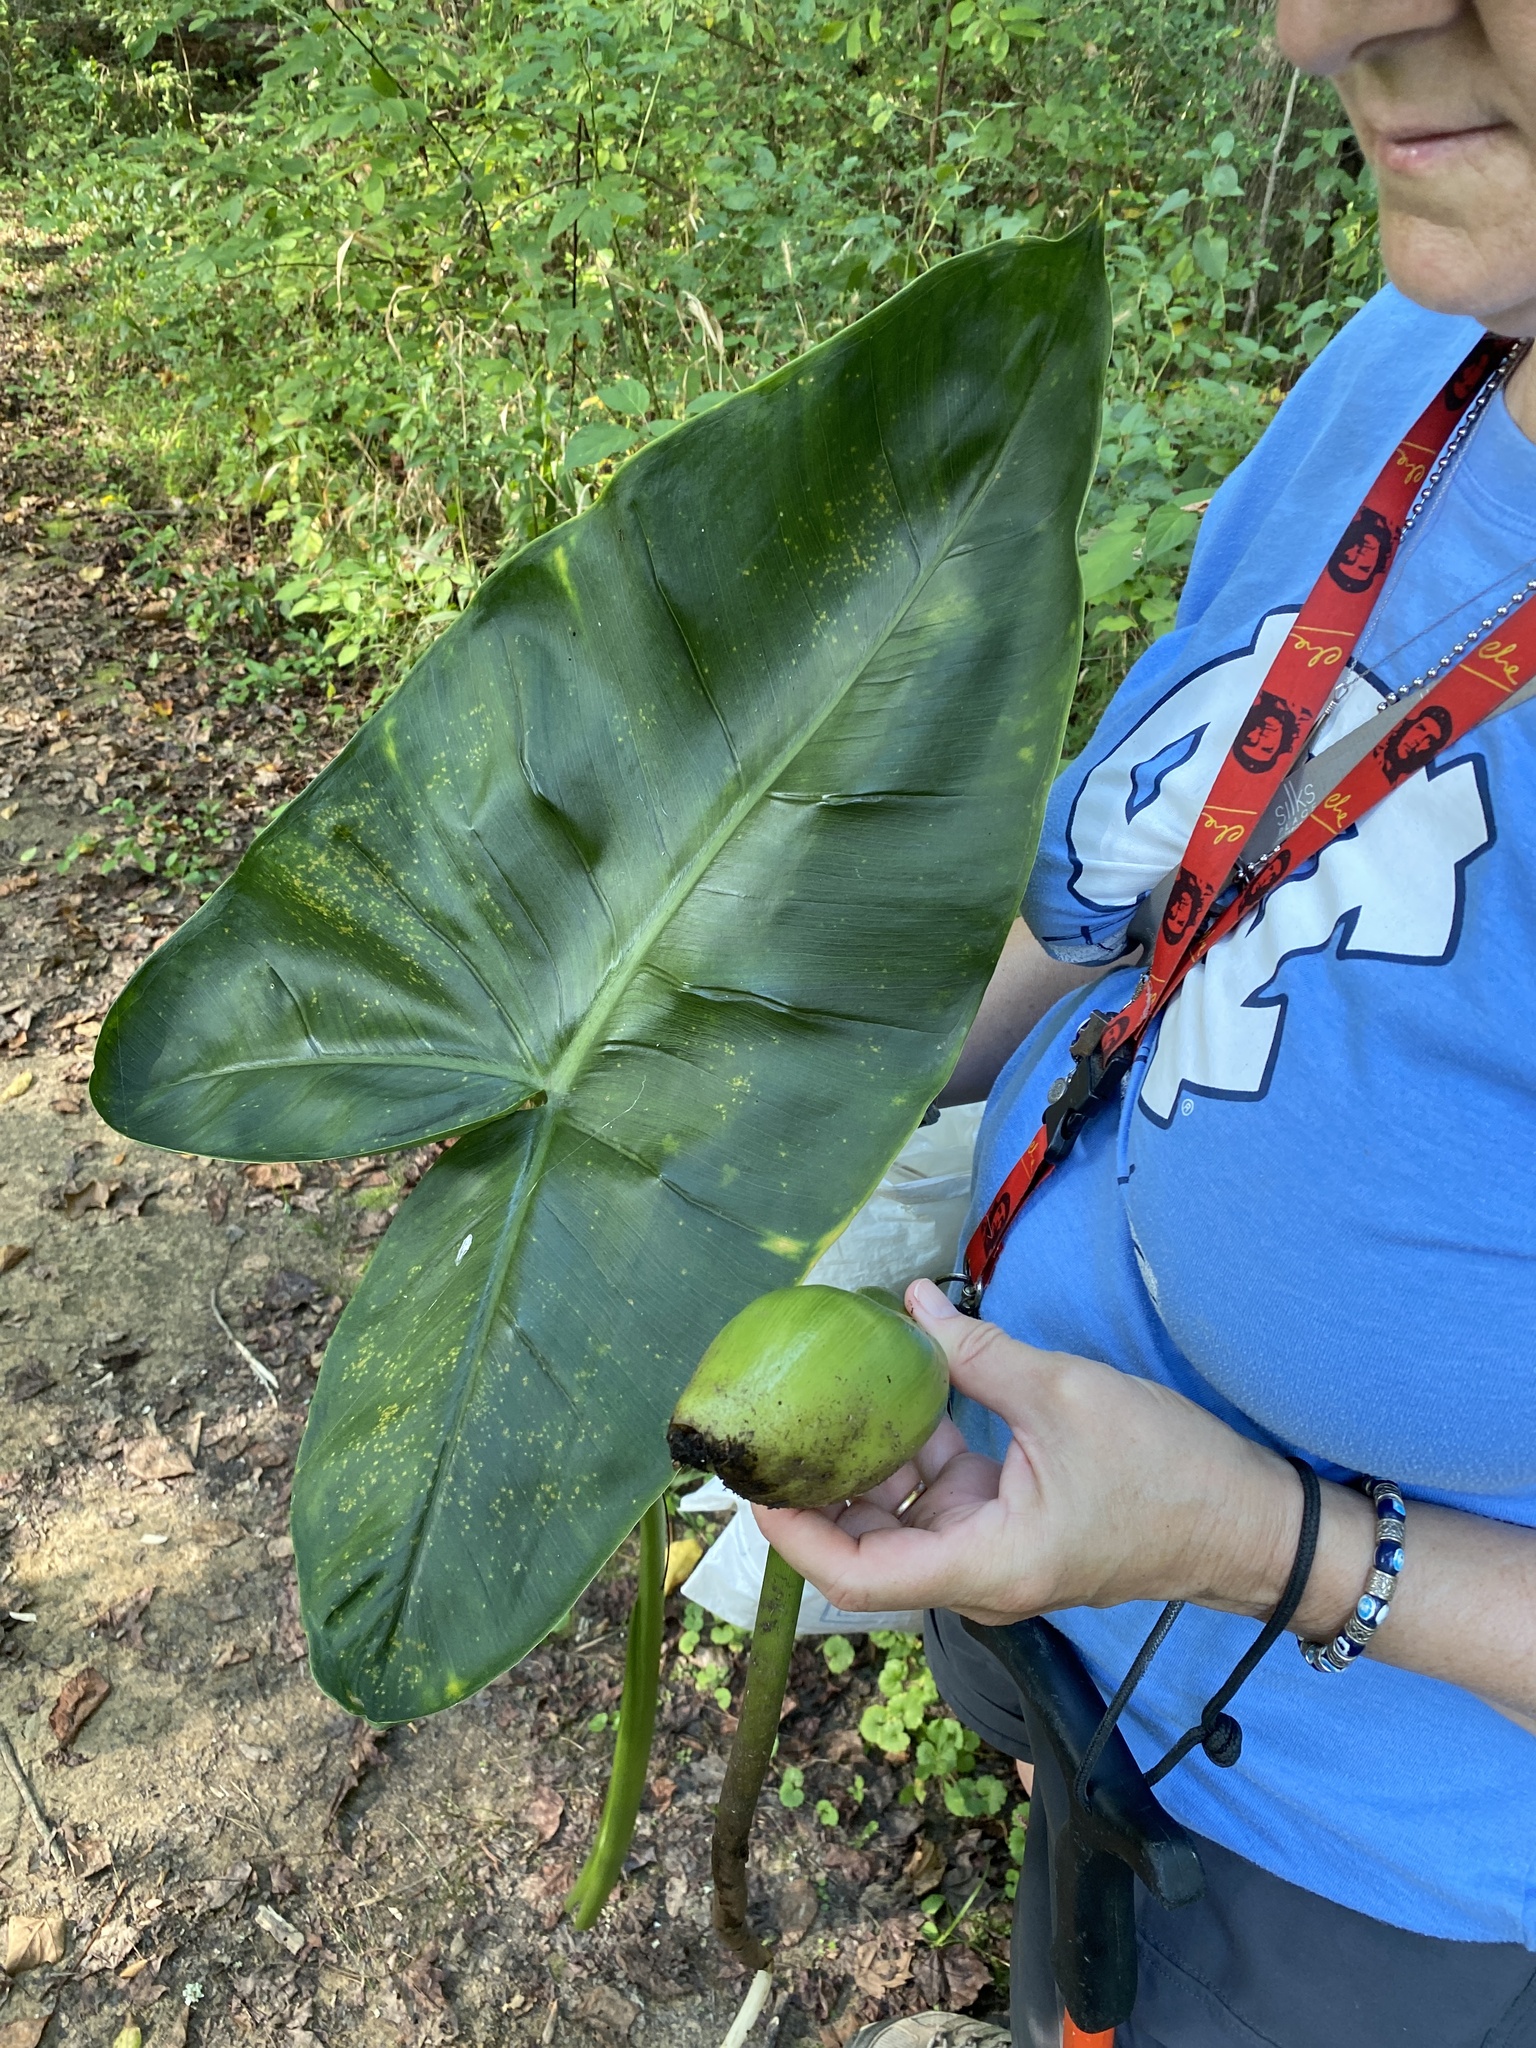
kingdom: Plantae
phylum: Tracheophyta
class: Liliopsida
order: Alismatales
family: Araceae
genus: Peltandra
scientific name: Peltandra virginica
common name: Arrow arum
